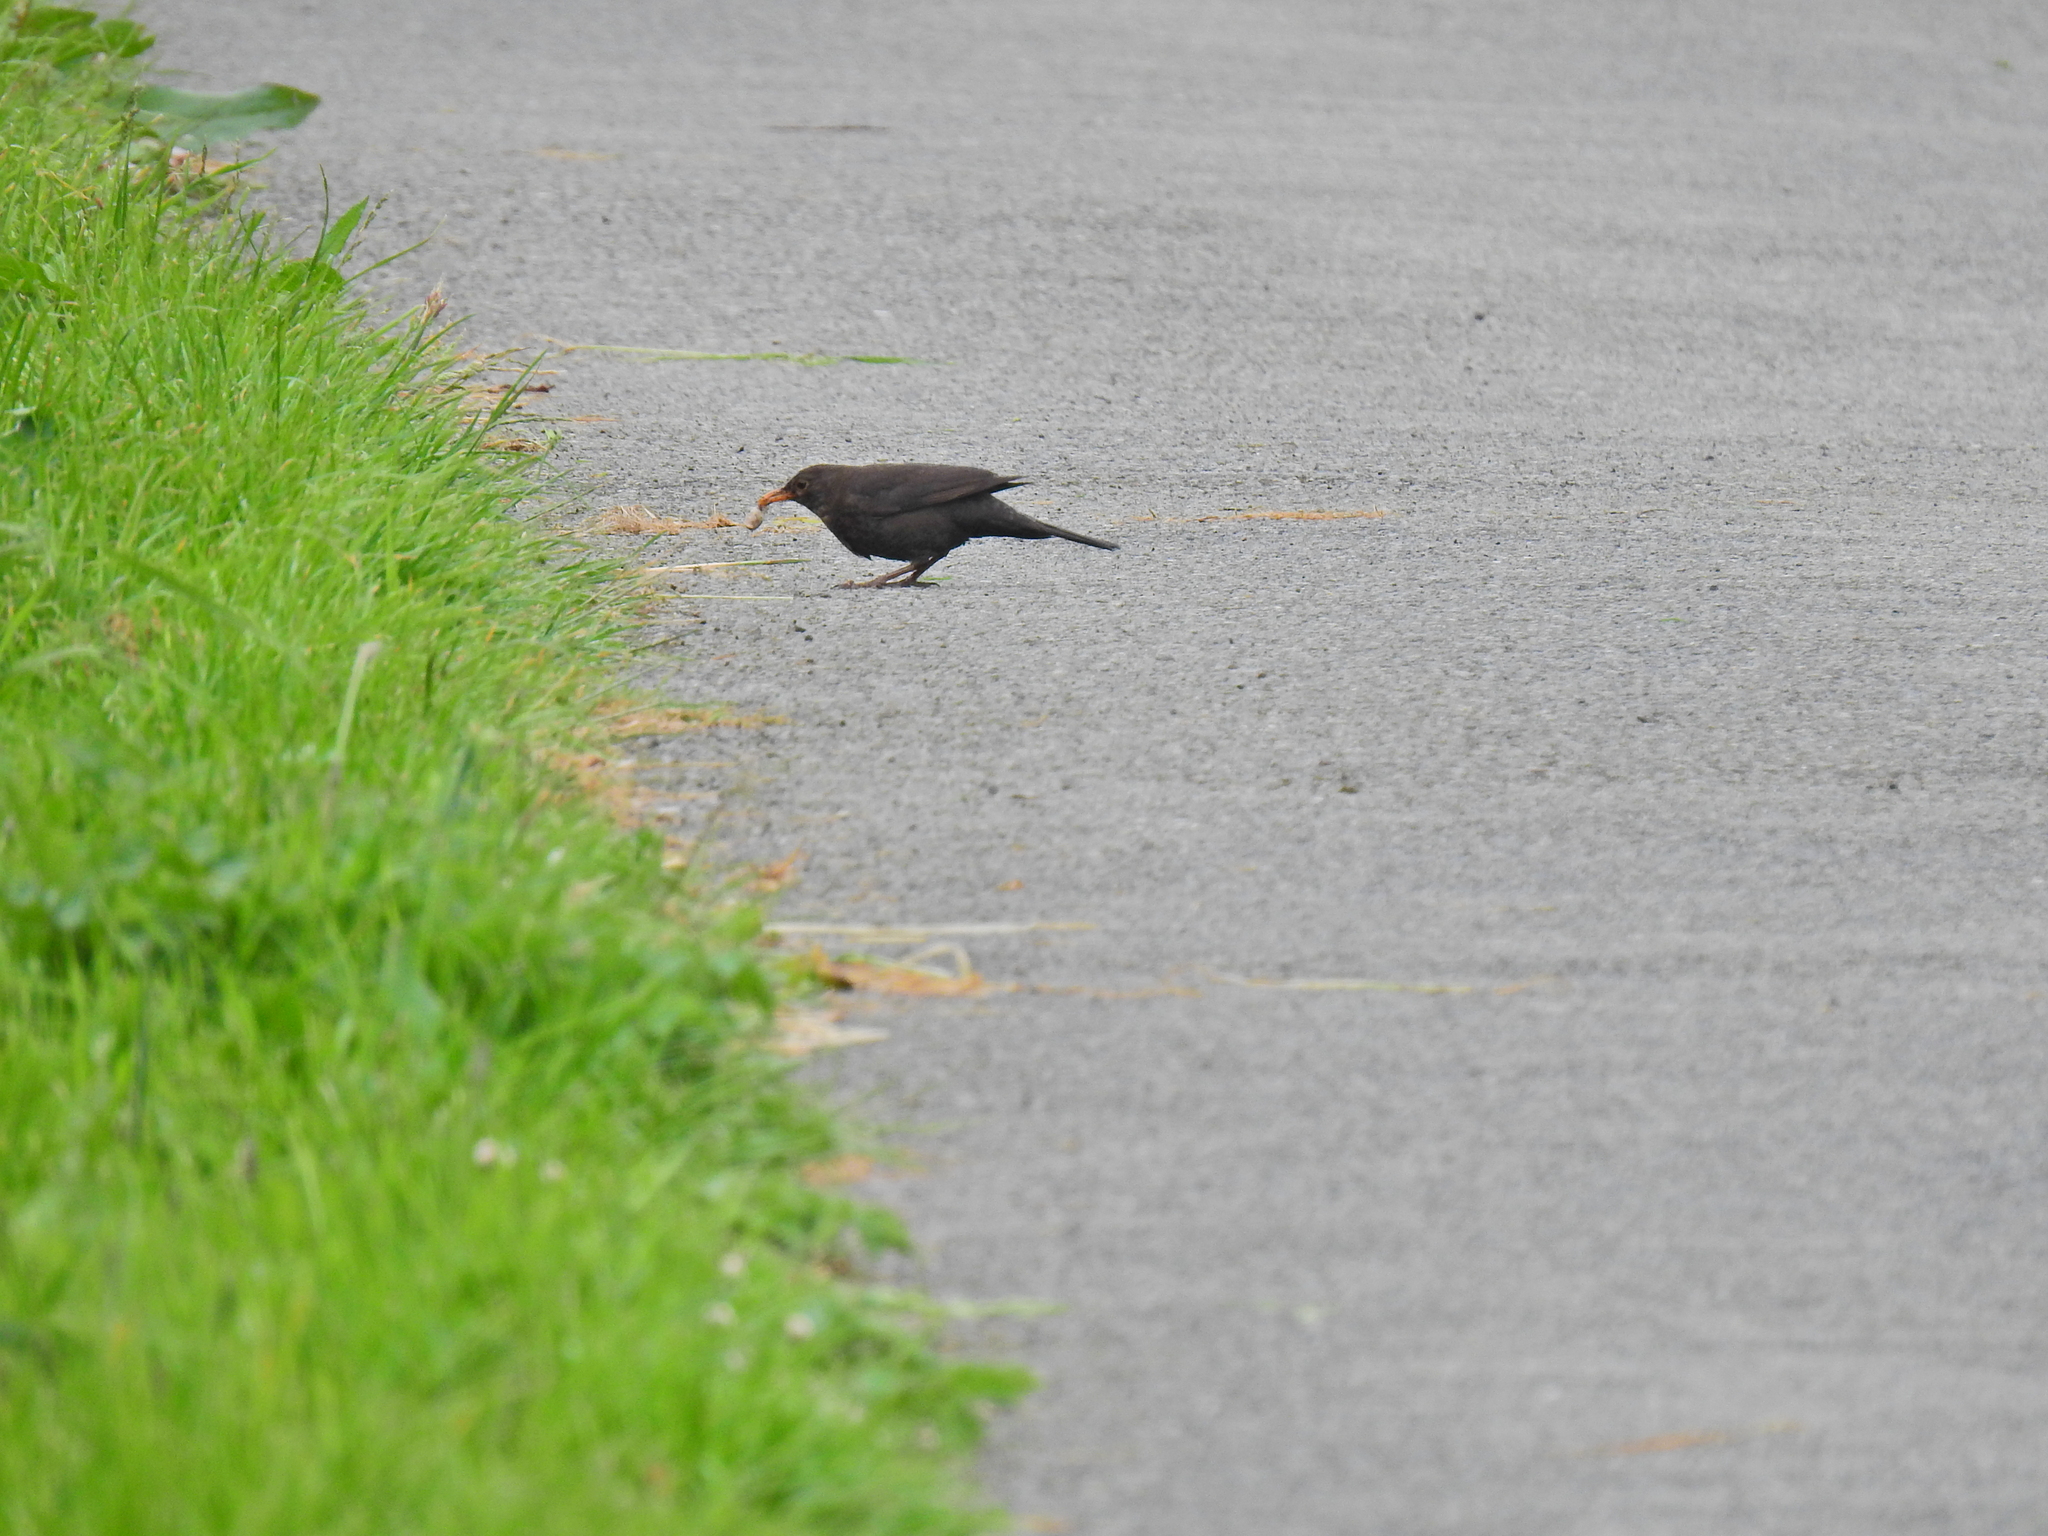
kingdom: Animalia
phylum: Chordata
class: Aves
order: Passeriformes
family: Turdidae
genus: Turdus
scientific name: Turdus merula
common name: Common blackbird
